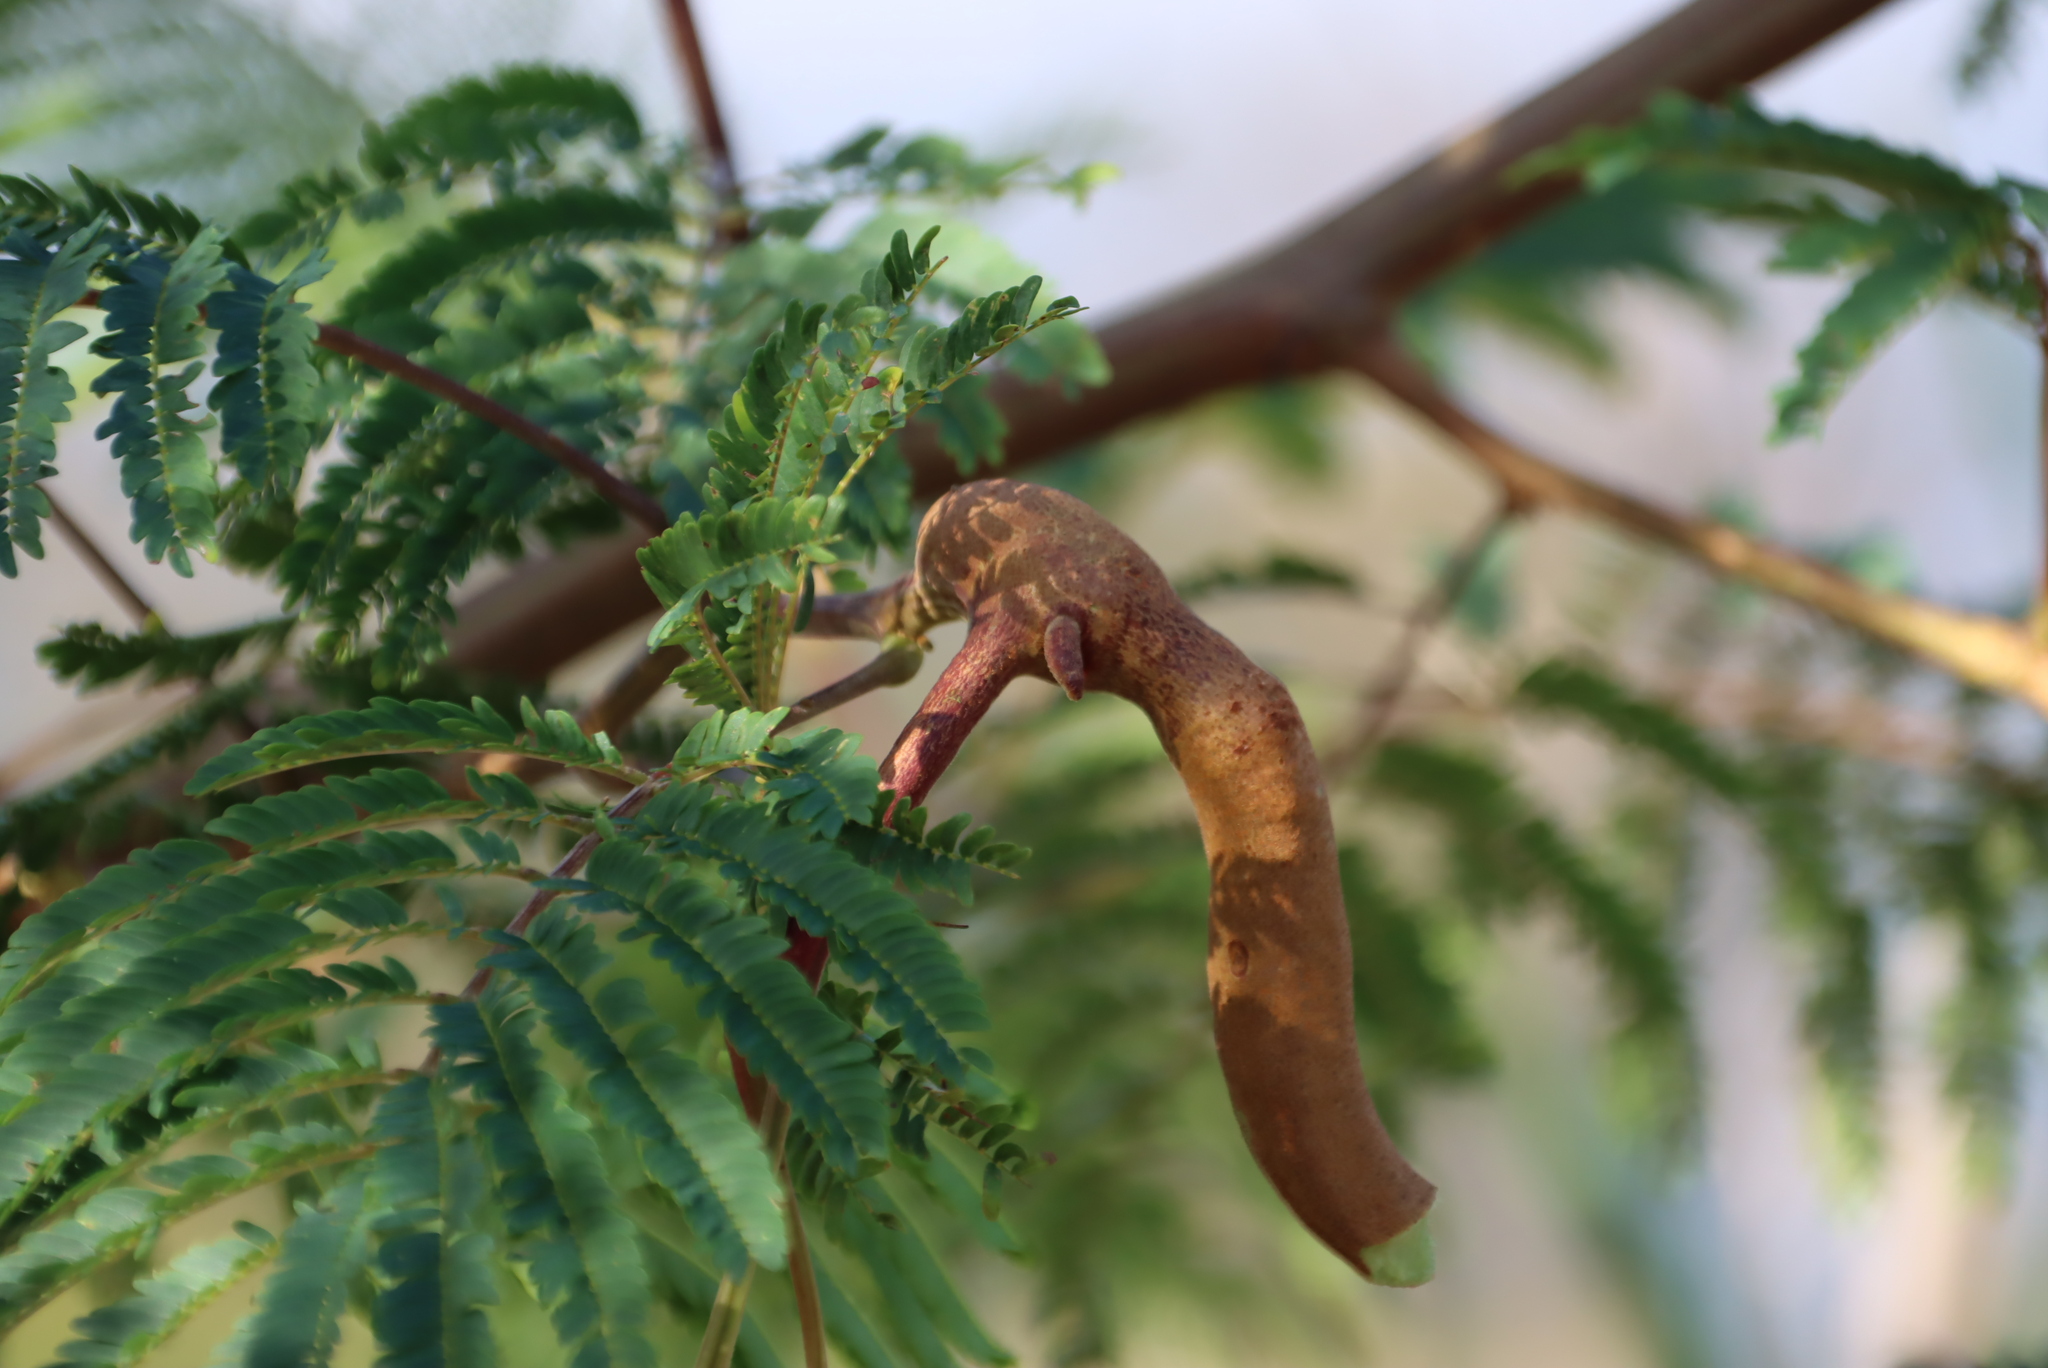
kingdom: Plantae
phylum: Tracheophyta
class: Magnoliopsida
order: Fabales
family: Fabaceae
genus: Paraserianthes
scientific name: Paraserianthes lophantha
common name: Plume albizia
